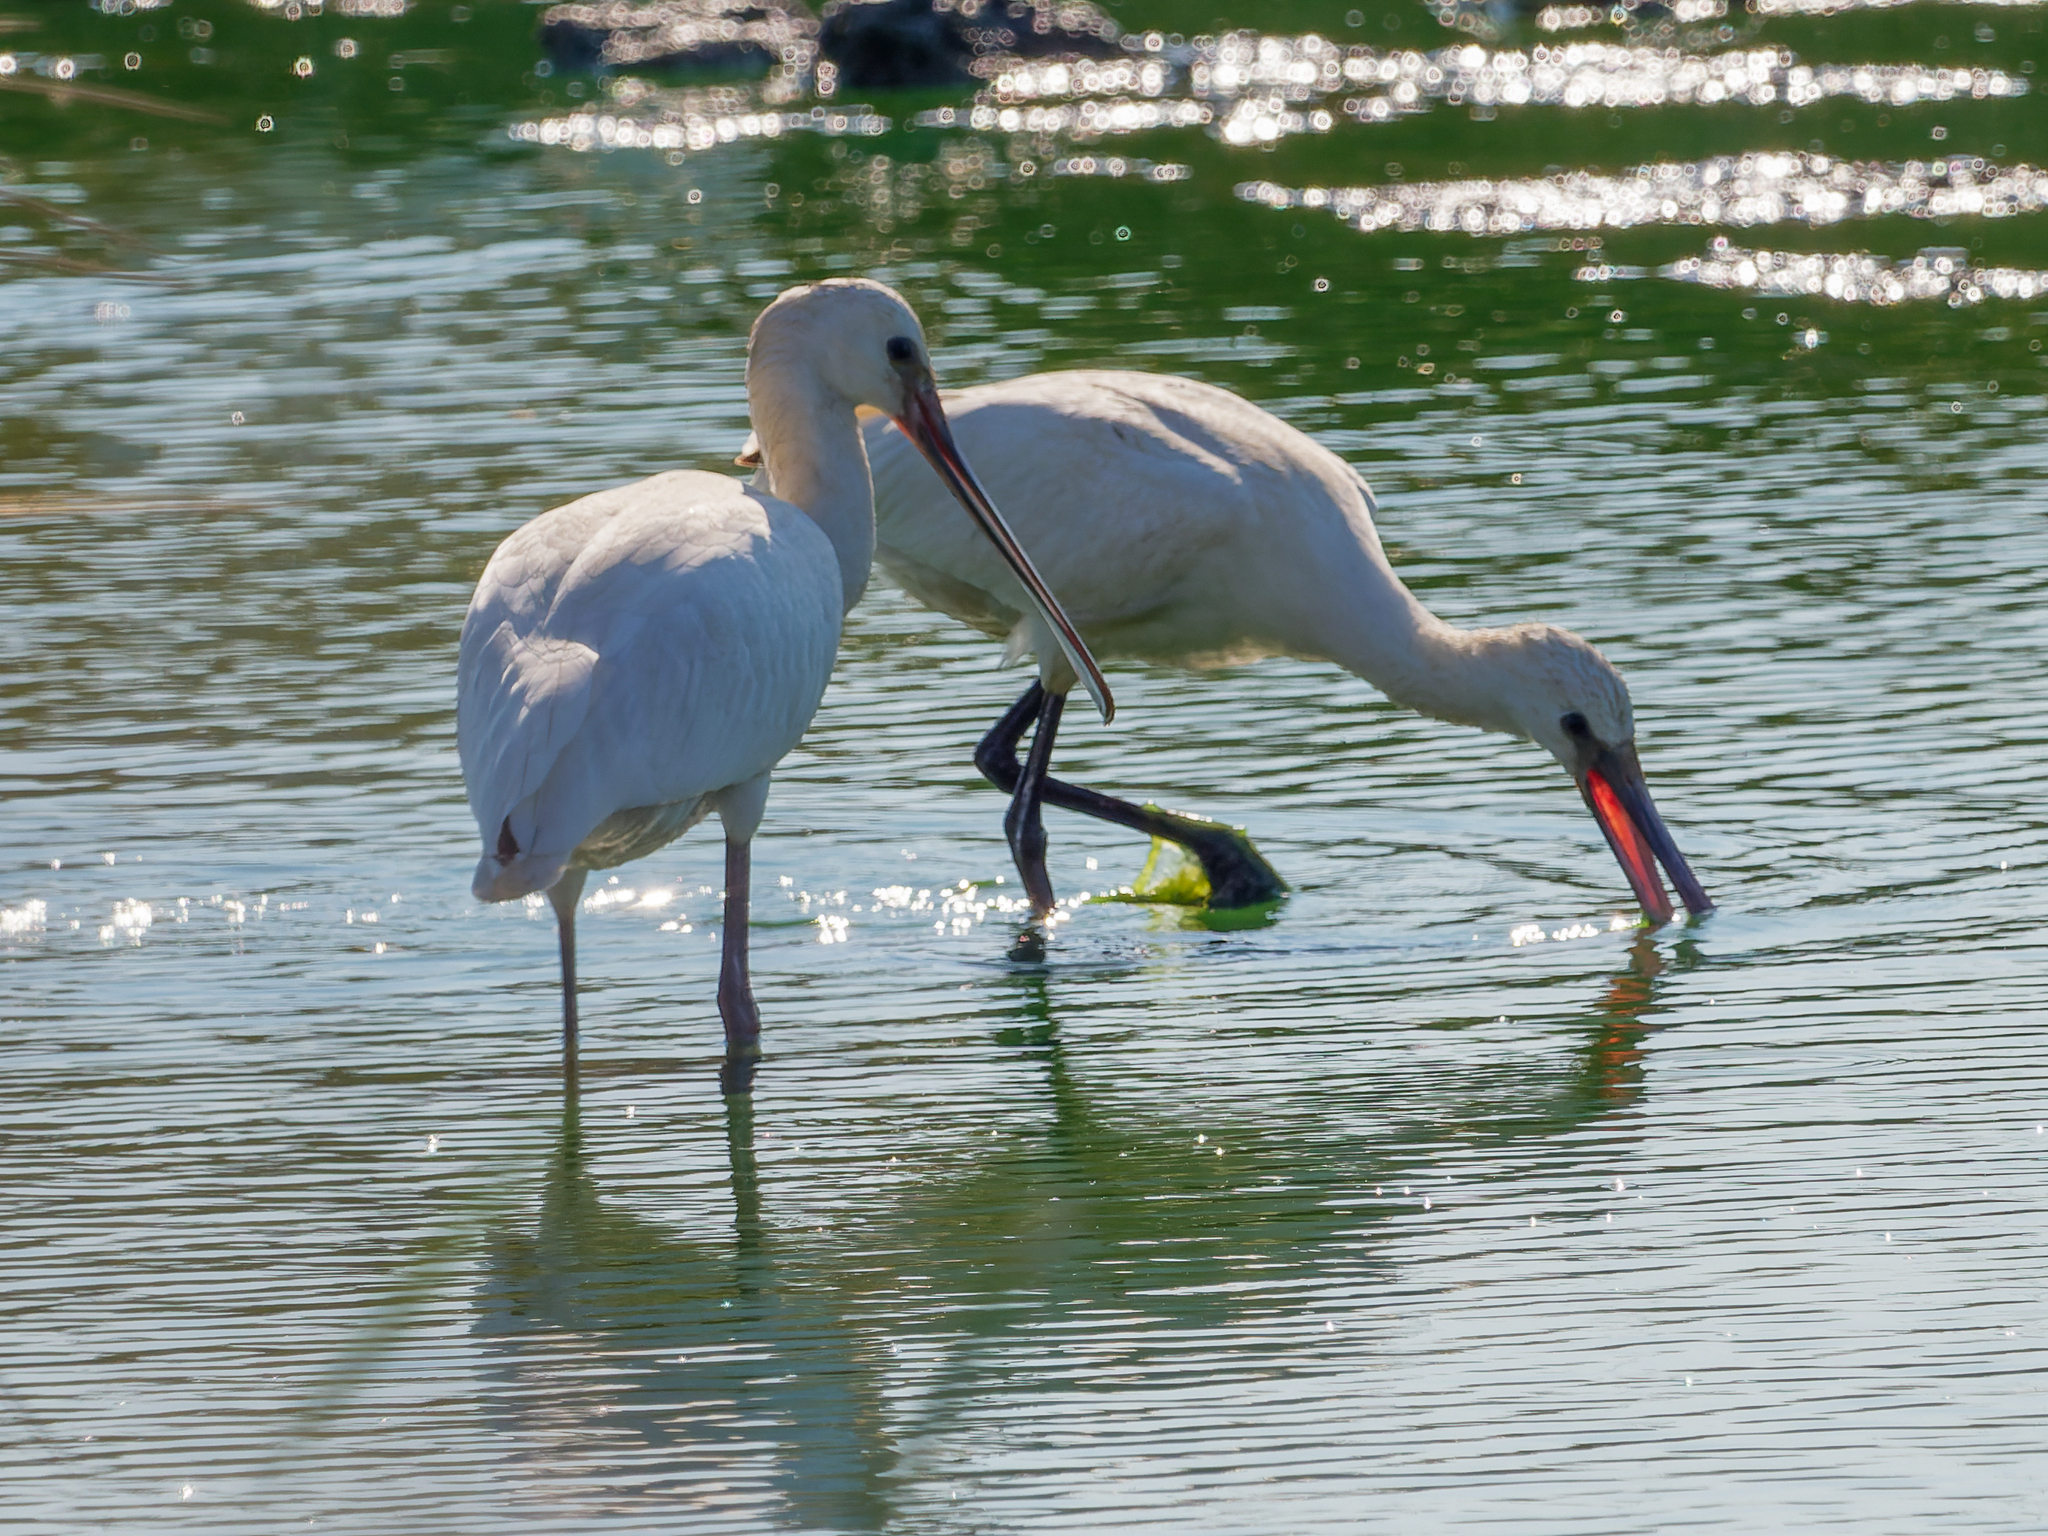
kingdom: Animalia
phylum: Chordata
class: Aves
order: Pelecaniformes
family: Threskiornithidae
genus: Platalea
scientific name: Platalea leucorodia
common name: Eurasian spoonbill
